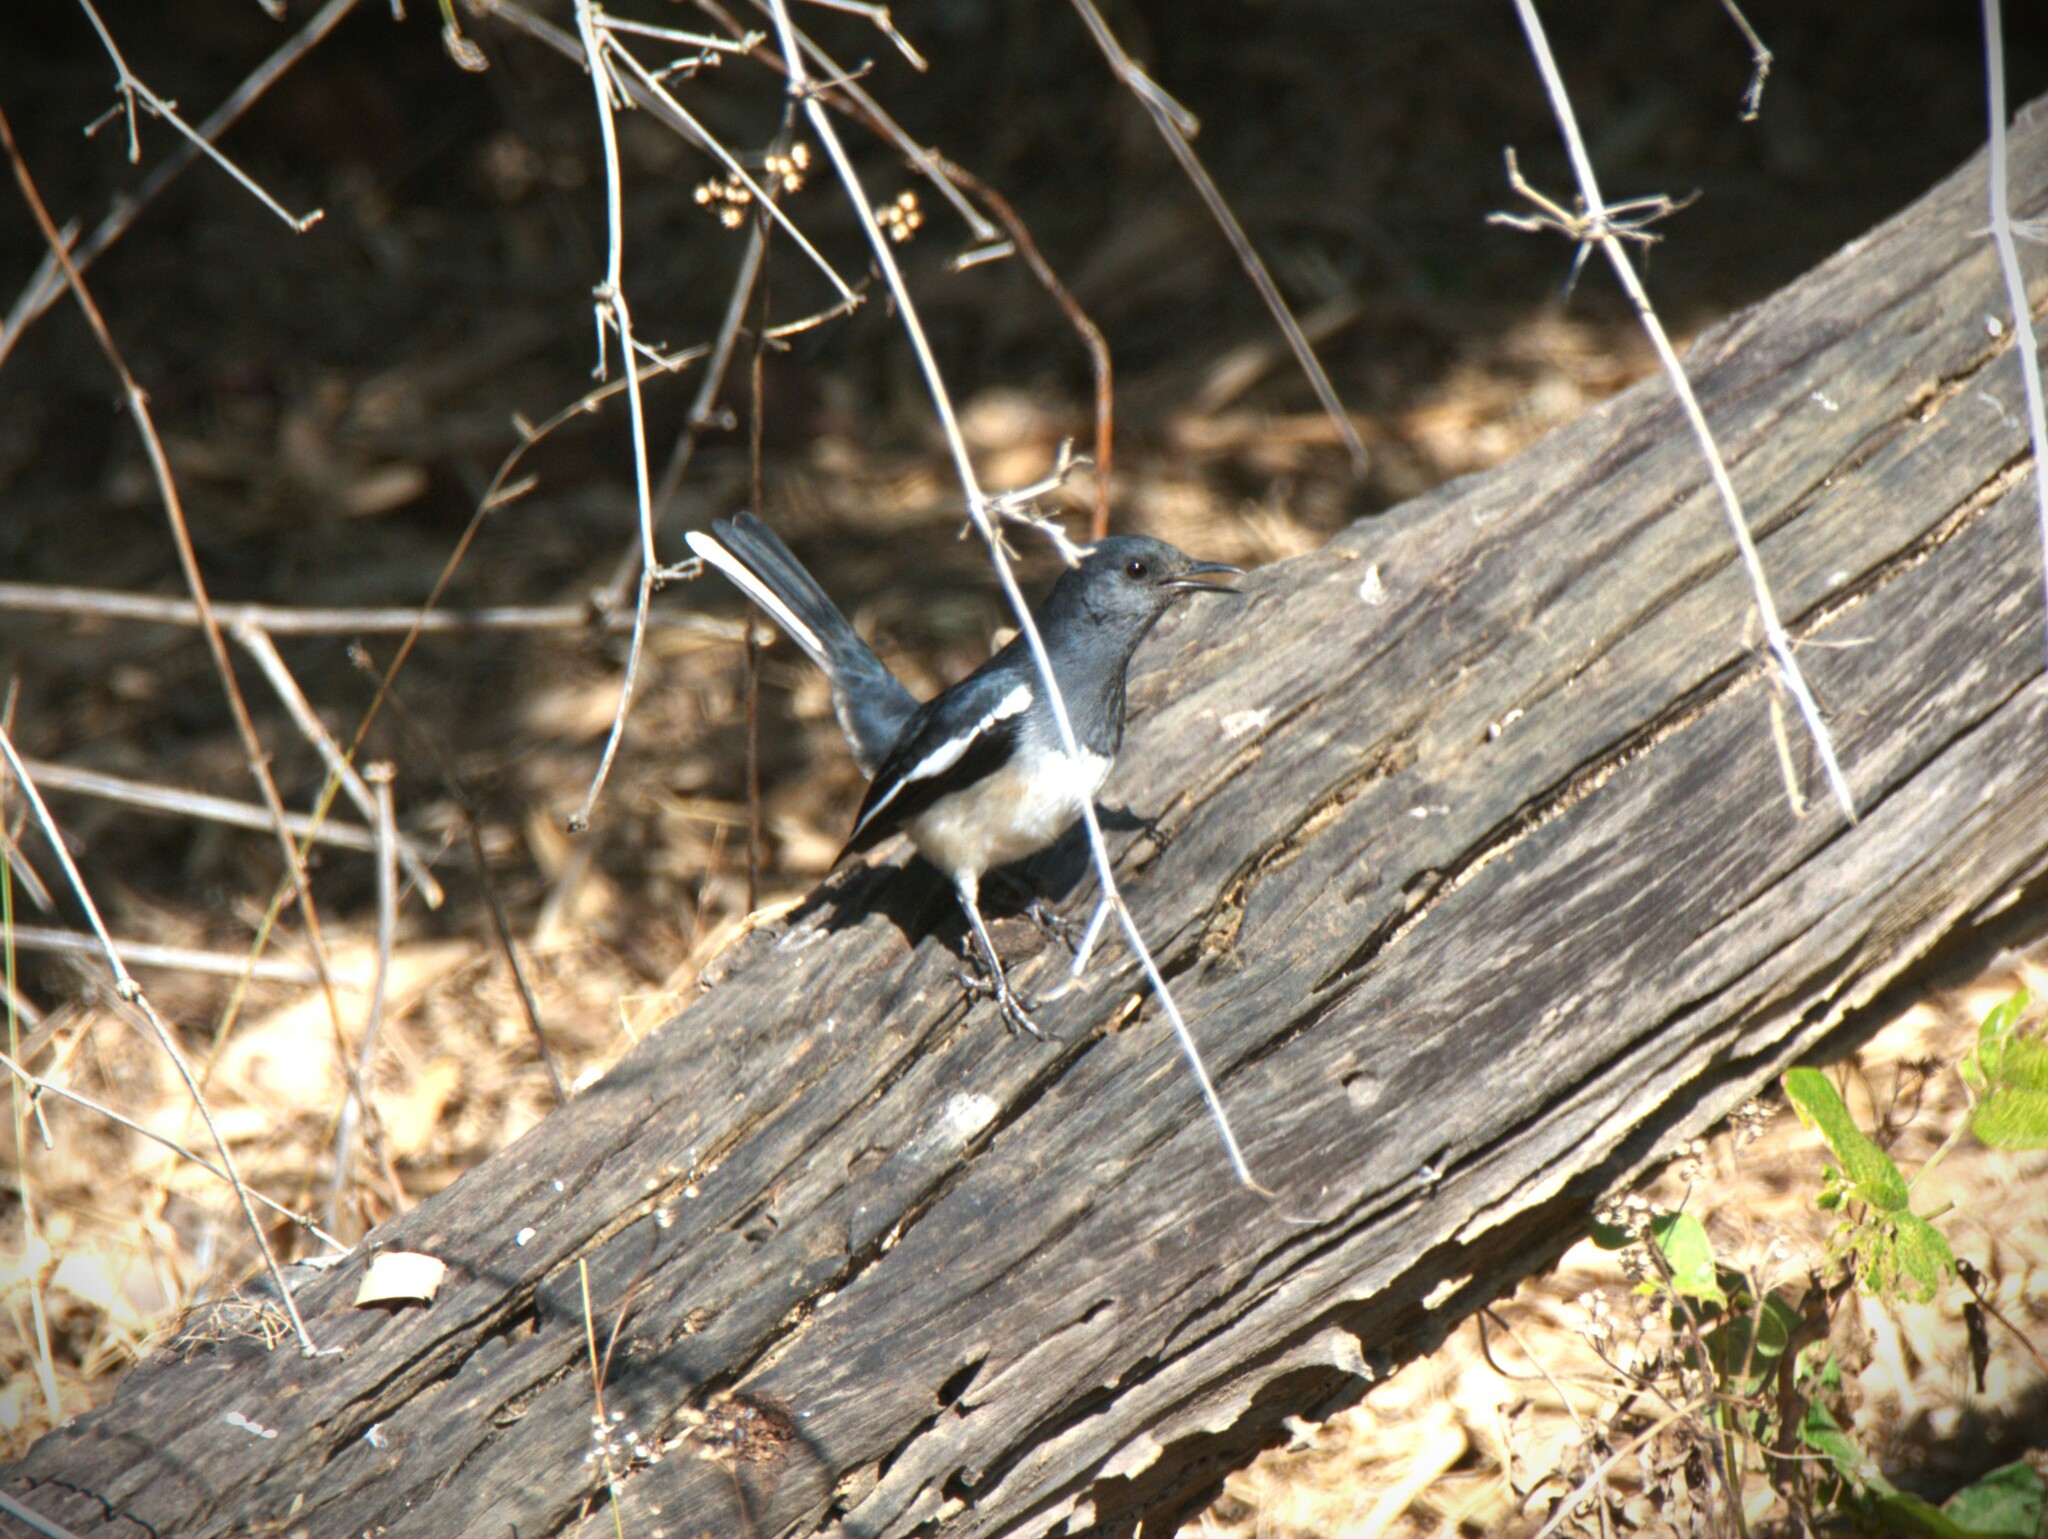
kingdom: Animalia
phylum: Chordata
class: Aves
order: Passeriformes
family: Muscicapidae
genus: Copsychus
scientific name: Copsychus saularis
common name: Oriental magpie-robin
